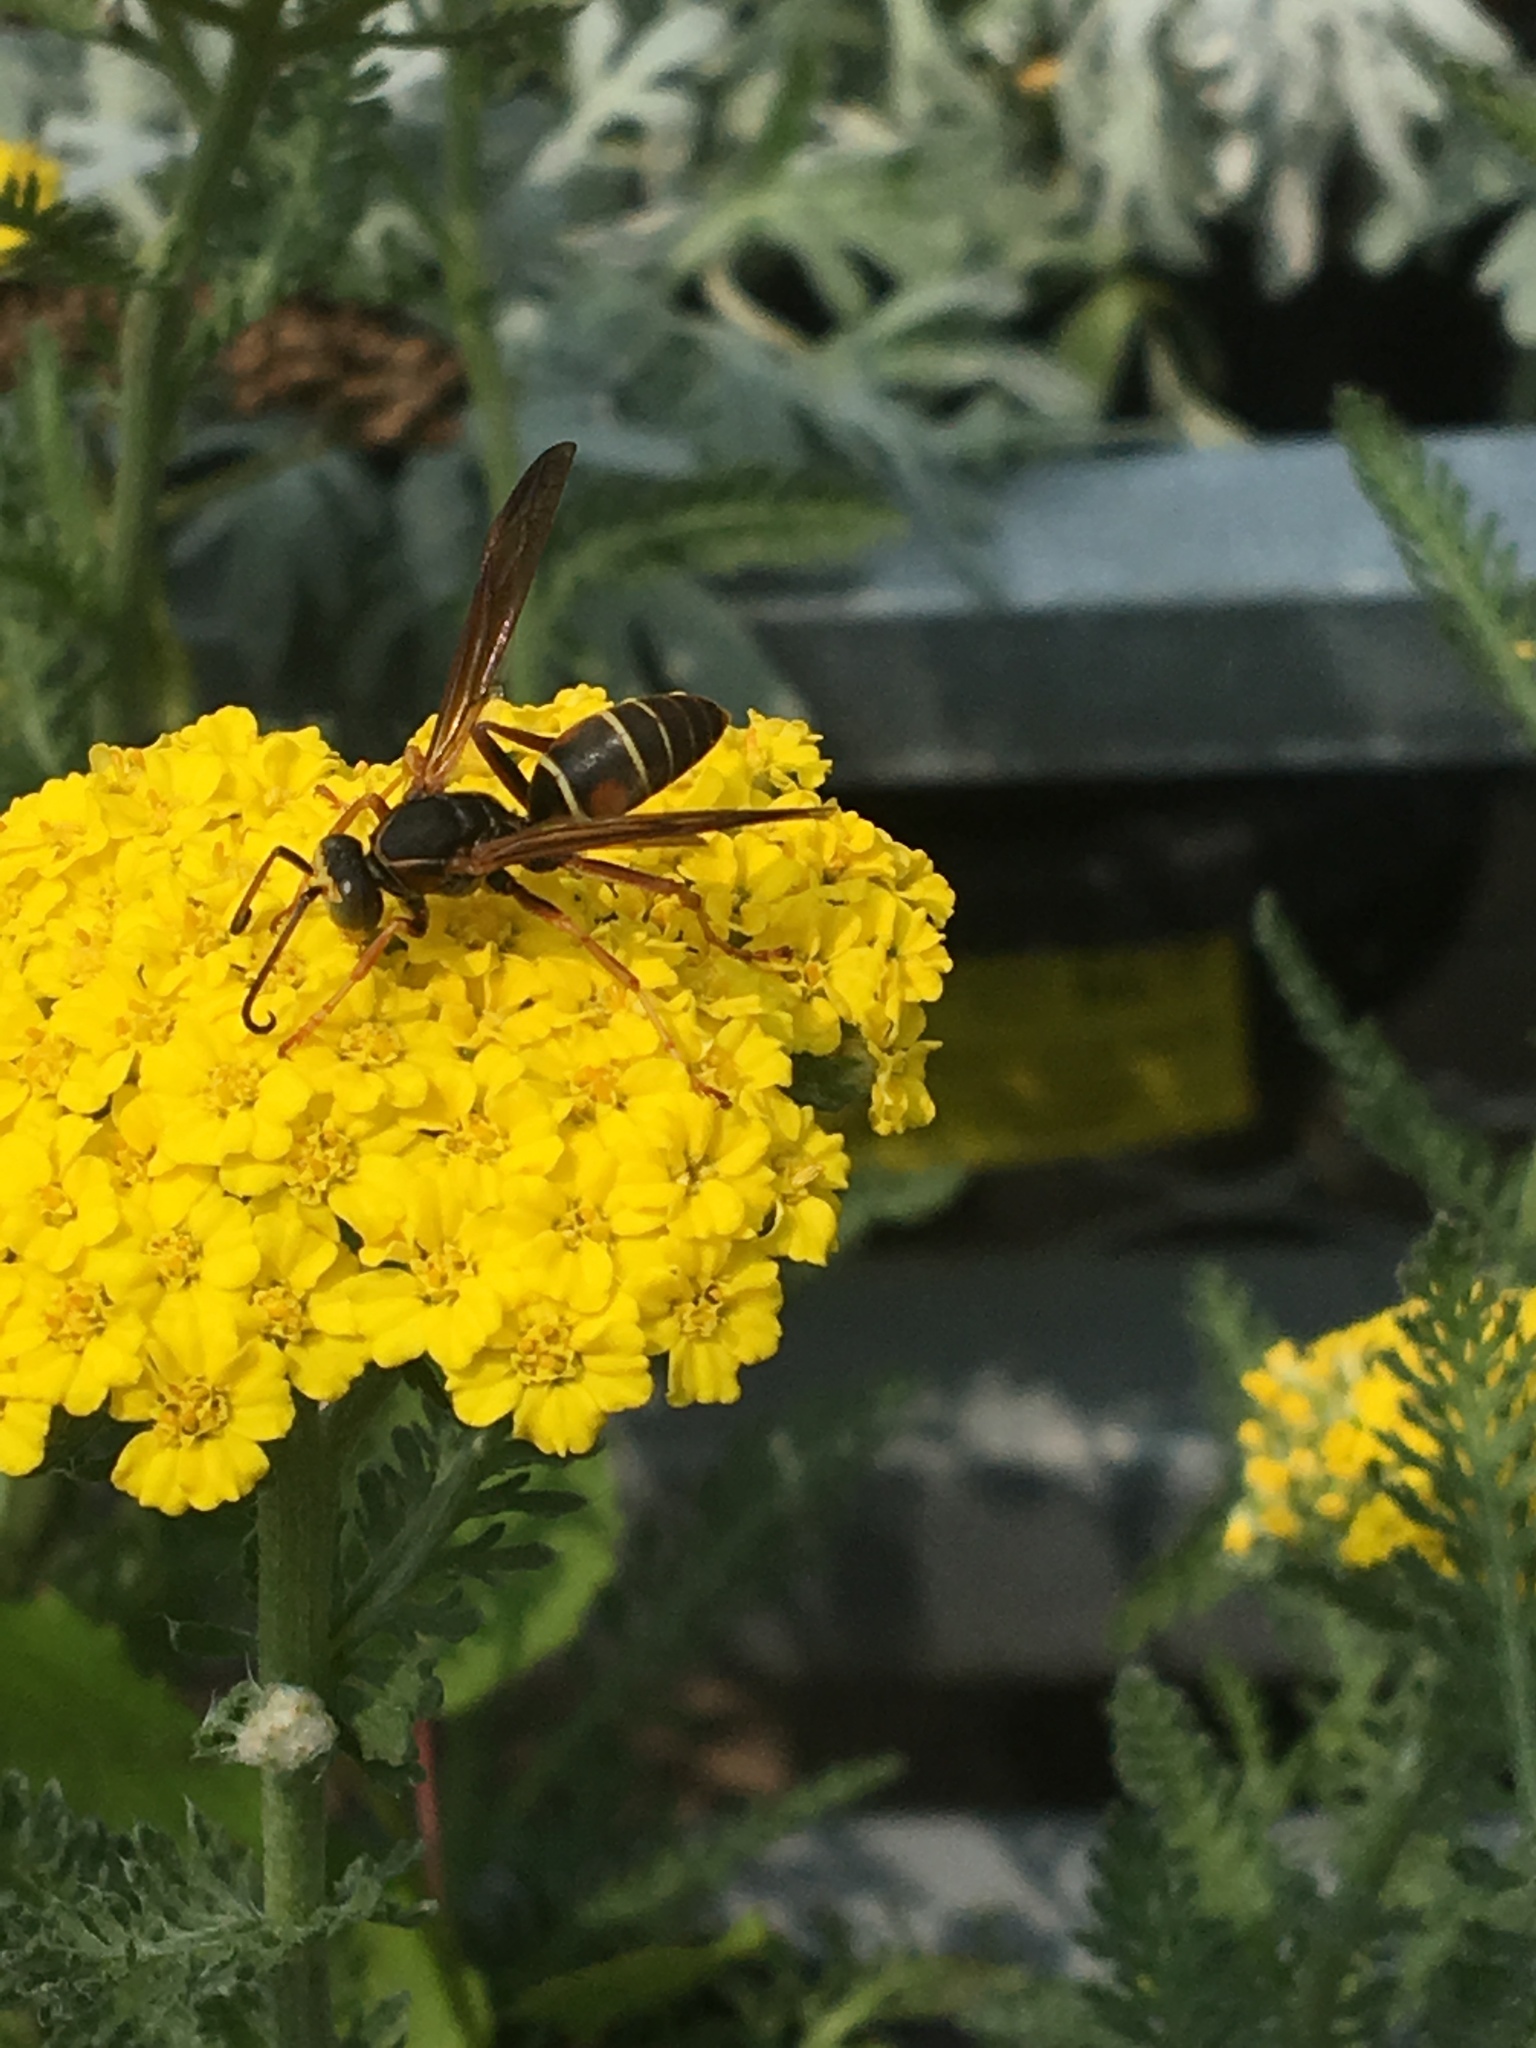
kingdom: Animalia
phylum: Arthropoda
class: Insecta
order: Hymenoptera
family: Eumenidae
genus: Polistes
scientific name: Polistes fuscatus
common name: Dark paper wasp
